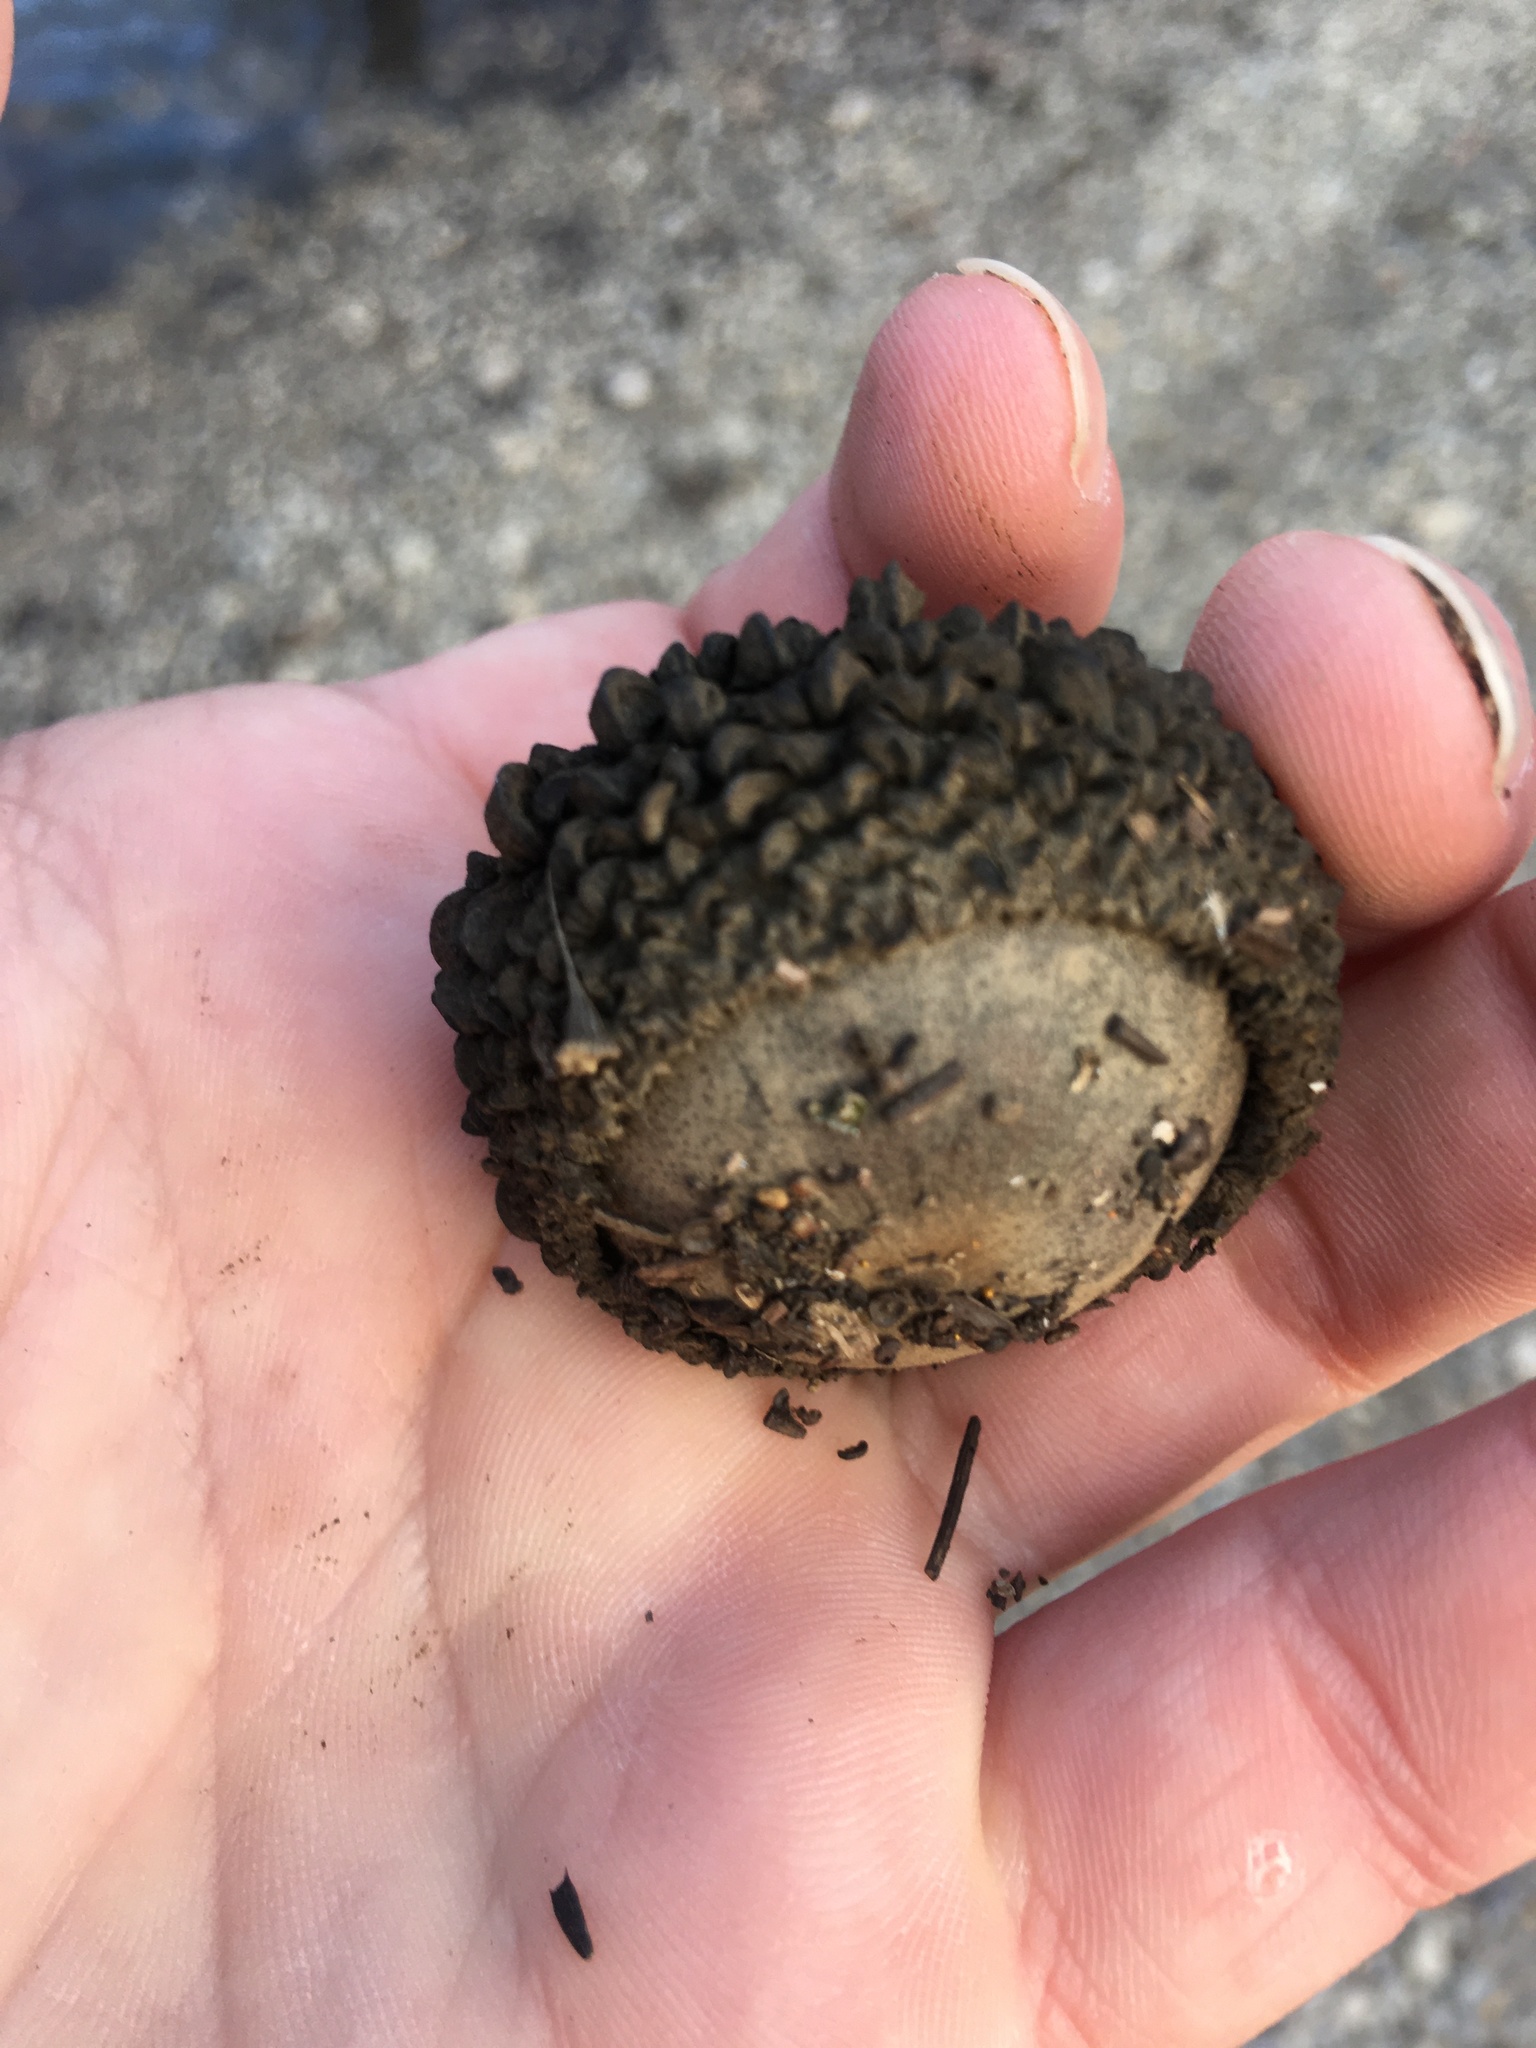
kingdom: Plantae
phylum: Tracheophyta
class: Magnoliopsida
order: Fagales
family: Fagaceae
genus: Quercus
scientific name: Quercus macrocarpa
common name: Bur oak
